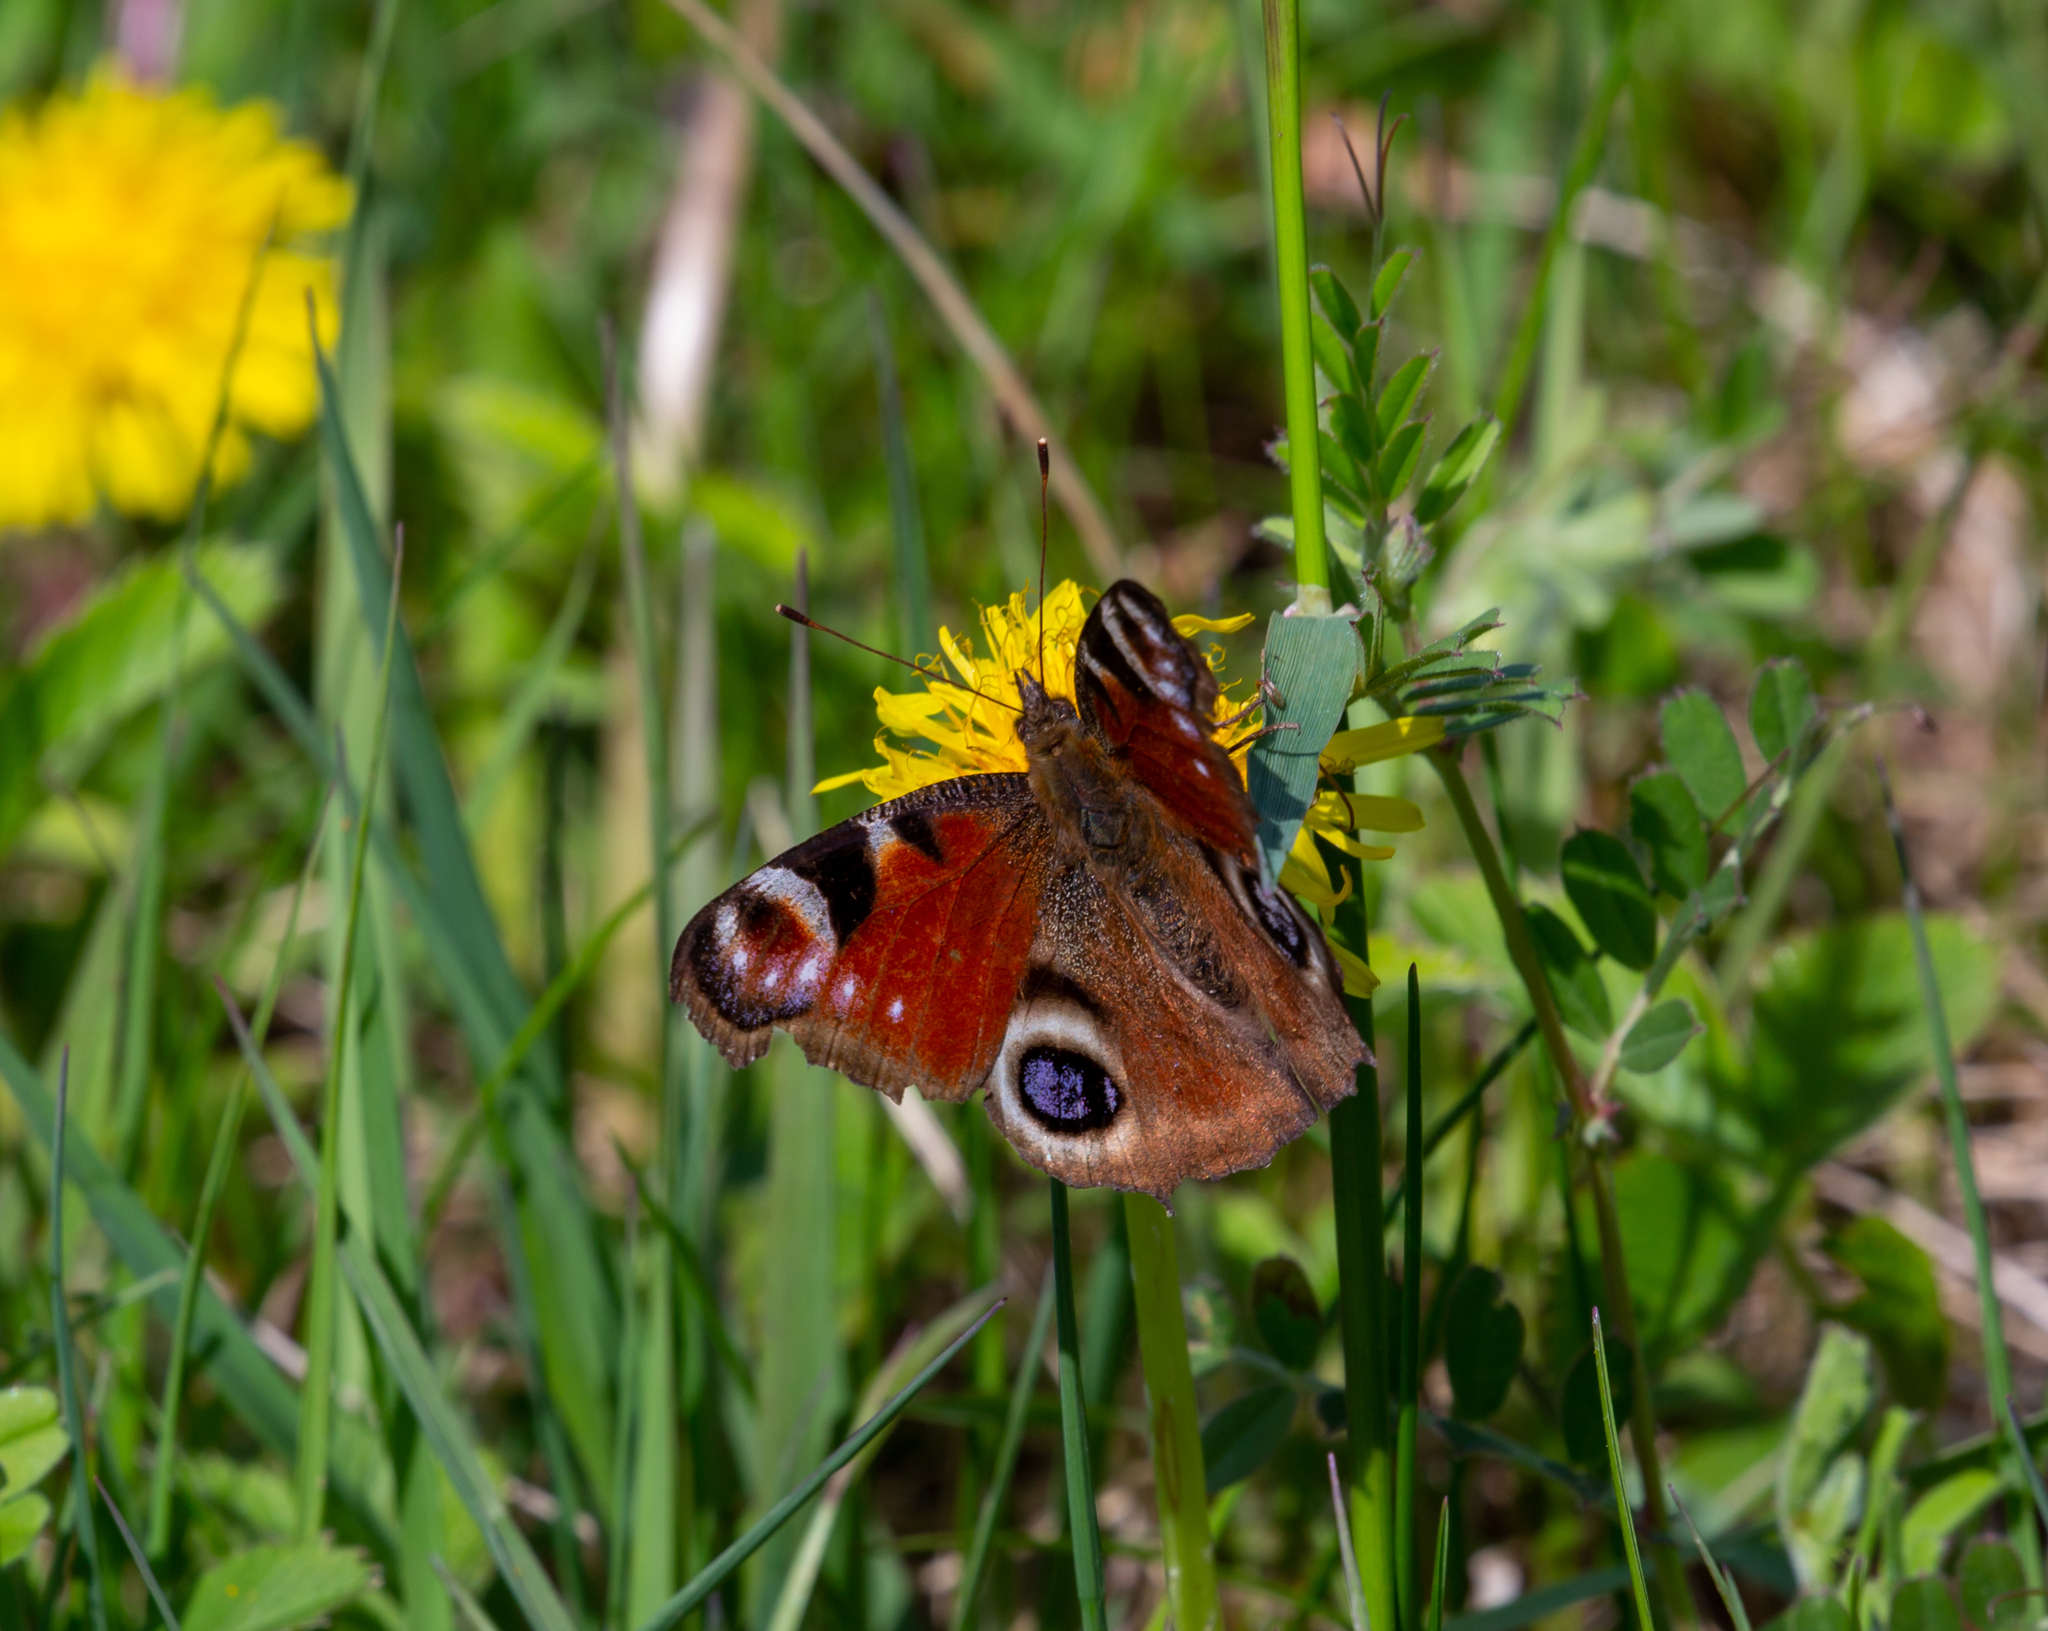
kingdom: Animalia
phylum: Arthropoda
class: Insecta
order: Lepidoptera
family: Nymphalidae
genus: Aglais
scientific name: Aglais io
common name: Peacock
